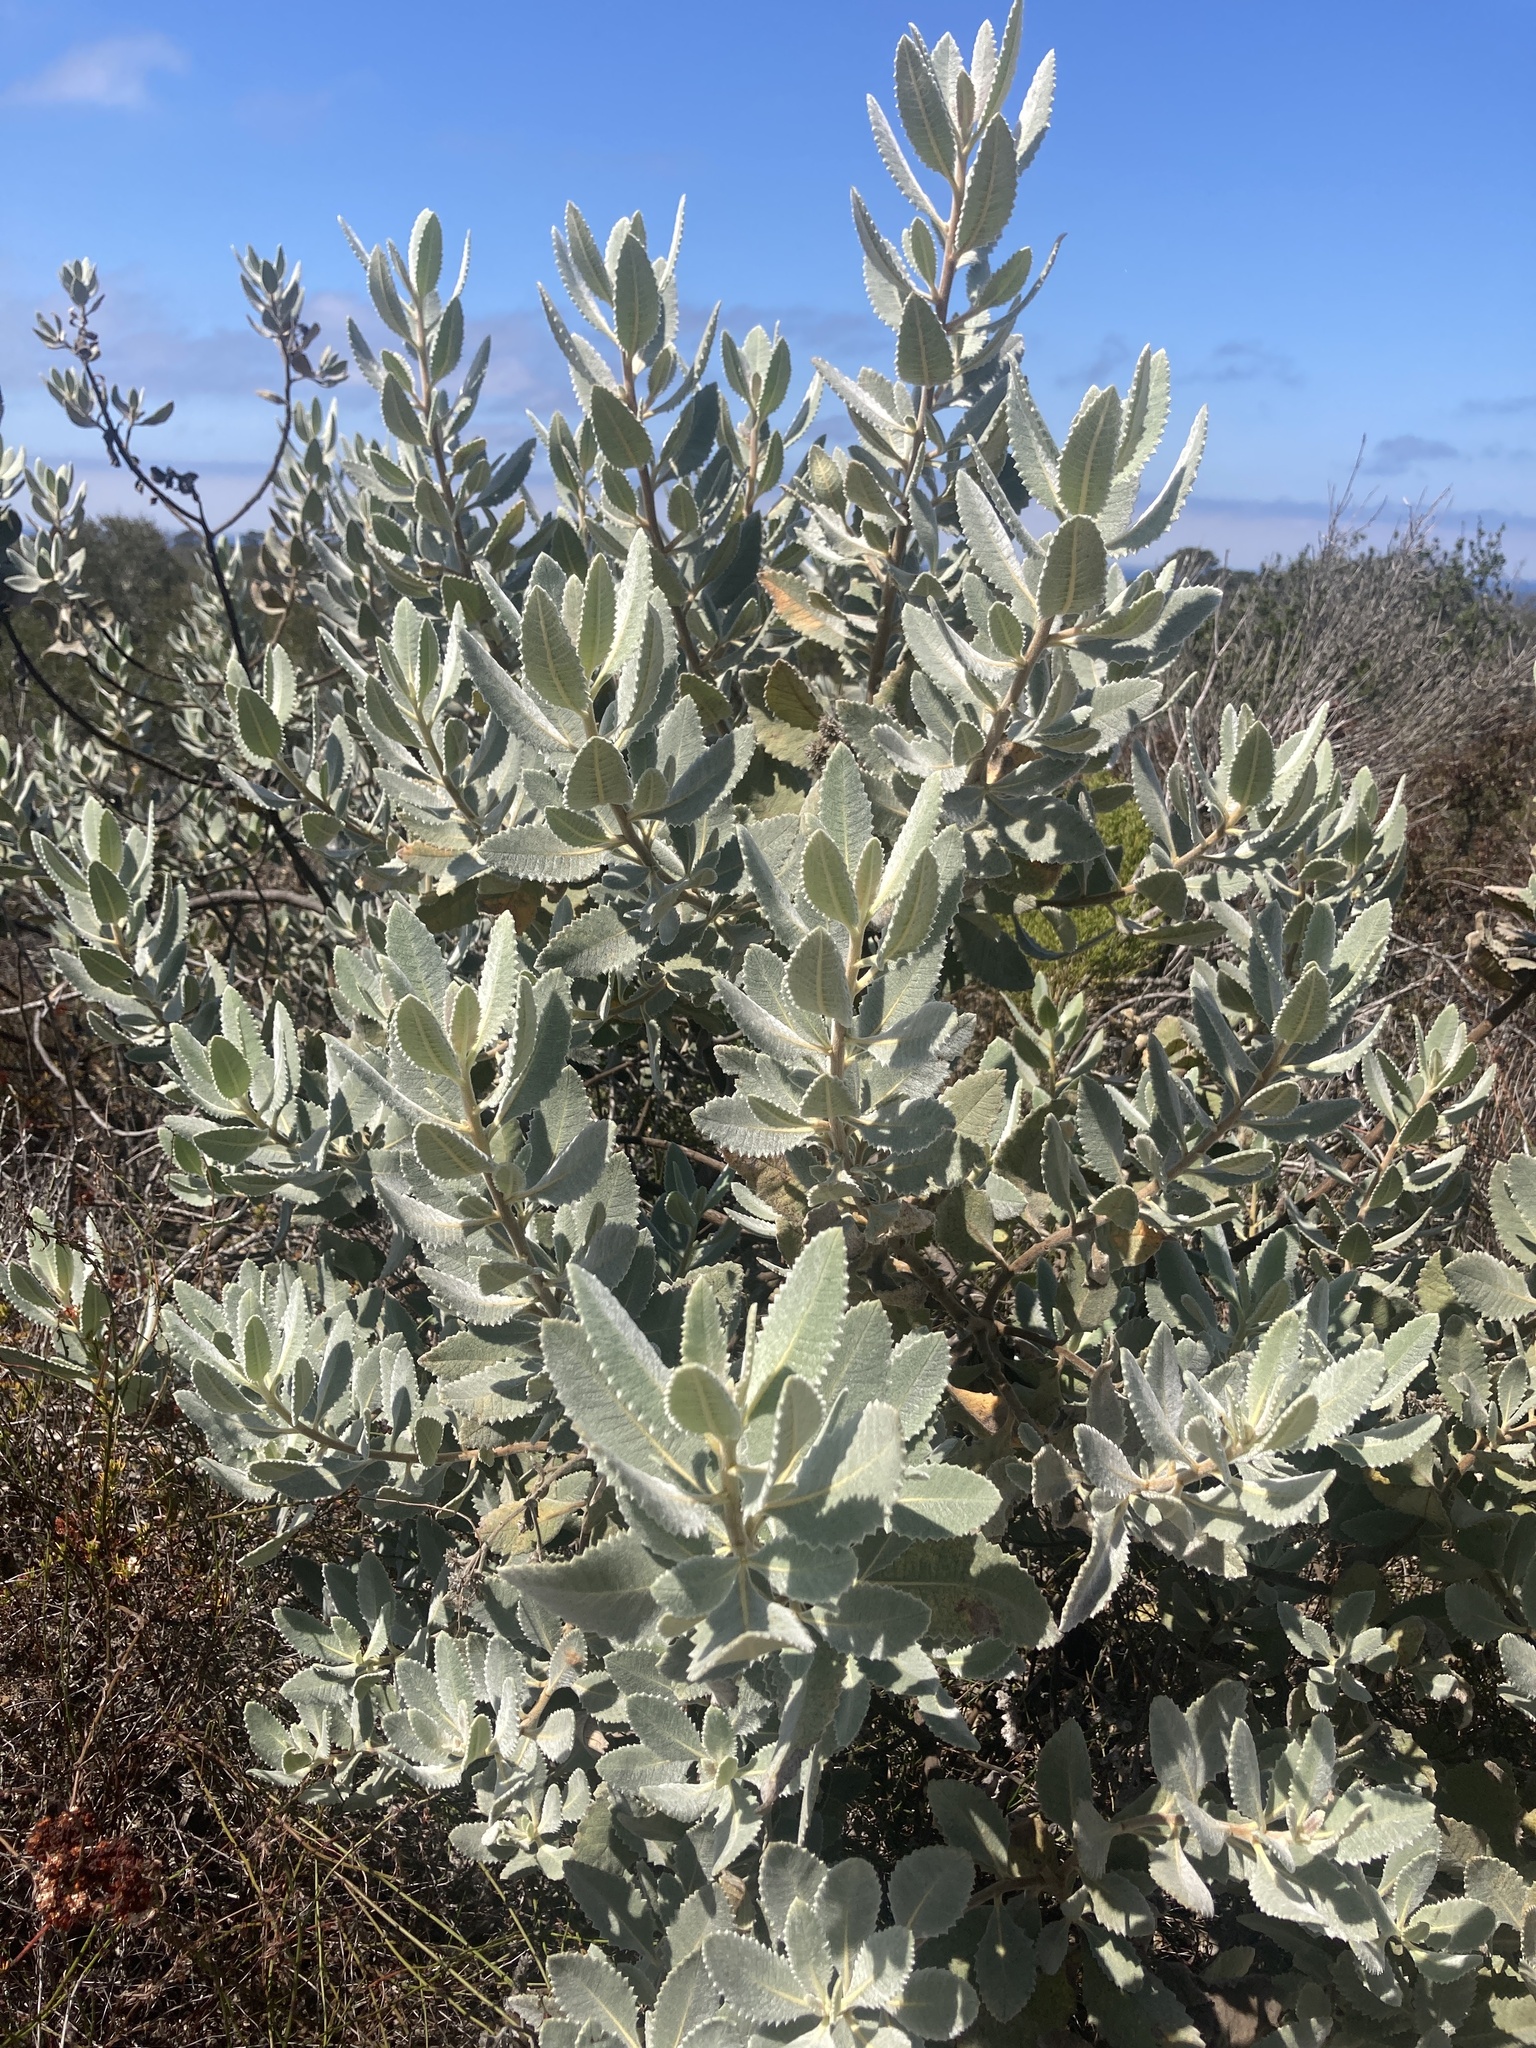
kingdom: Plantae
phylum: Tracheophyta
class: Magnoliopsida
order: Boraginales
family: Namaceae
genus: Eriodictyon
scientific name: Eriodictyon crassifolium
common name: Thick-leaf yerba-santa
